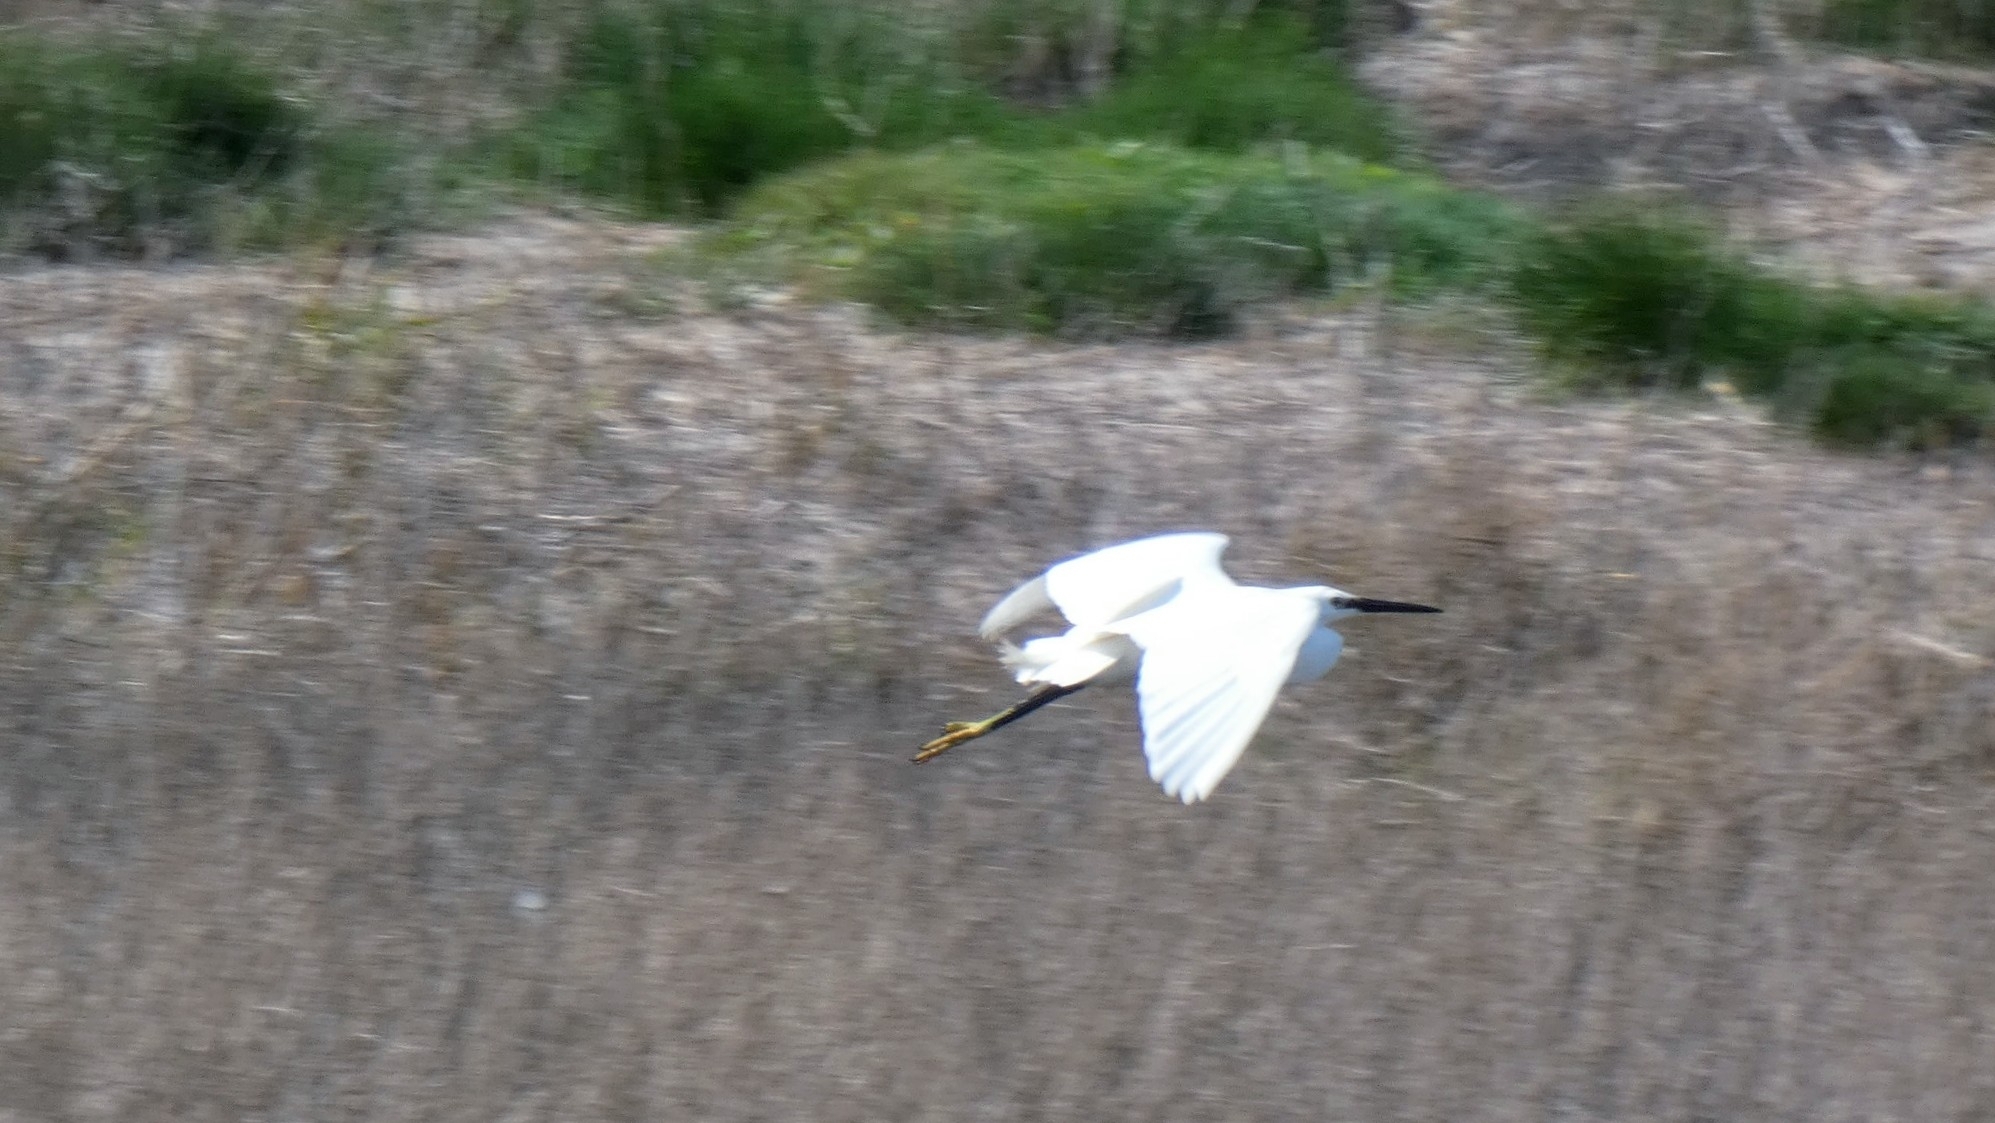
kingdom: Animalia
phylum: Chordata
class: Aves
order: Pelecaniformes
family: Ardeidae
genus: Egretta
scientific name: Egretta garzetta
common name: Little egret
